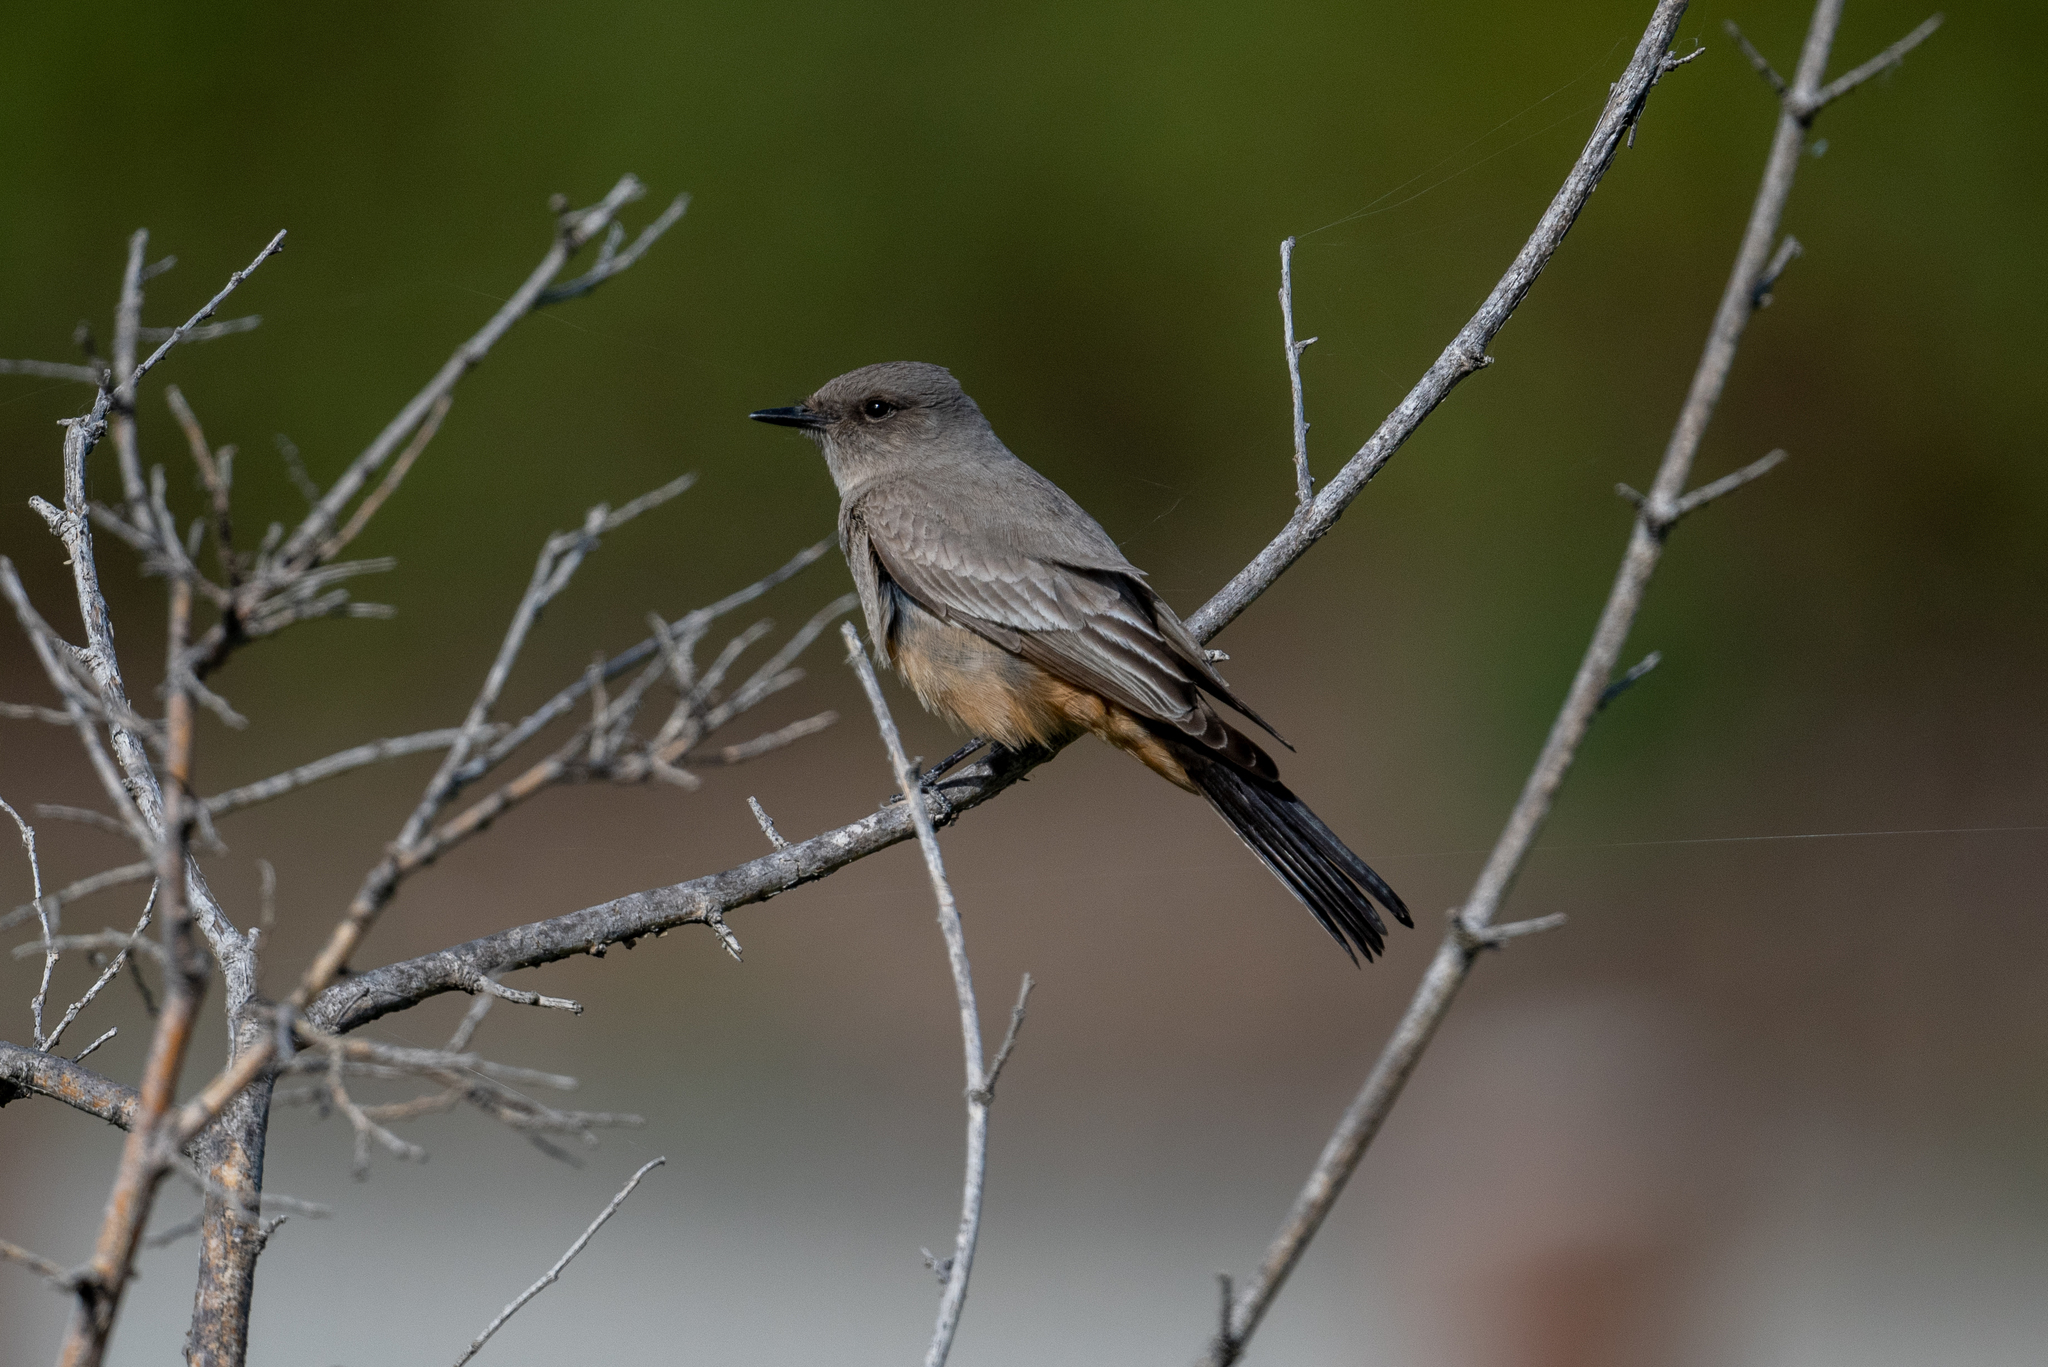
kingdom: Animalia
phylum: Chordata
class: Aves
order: Passeriformes
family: Tyrannidae
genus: Sayornis
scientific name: Sayornis saya
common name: Say's phoebe
